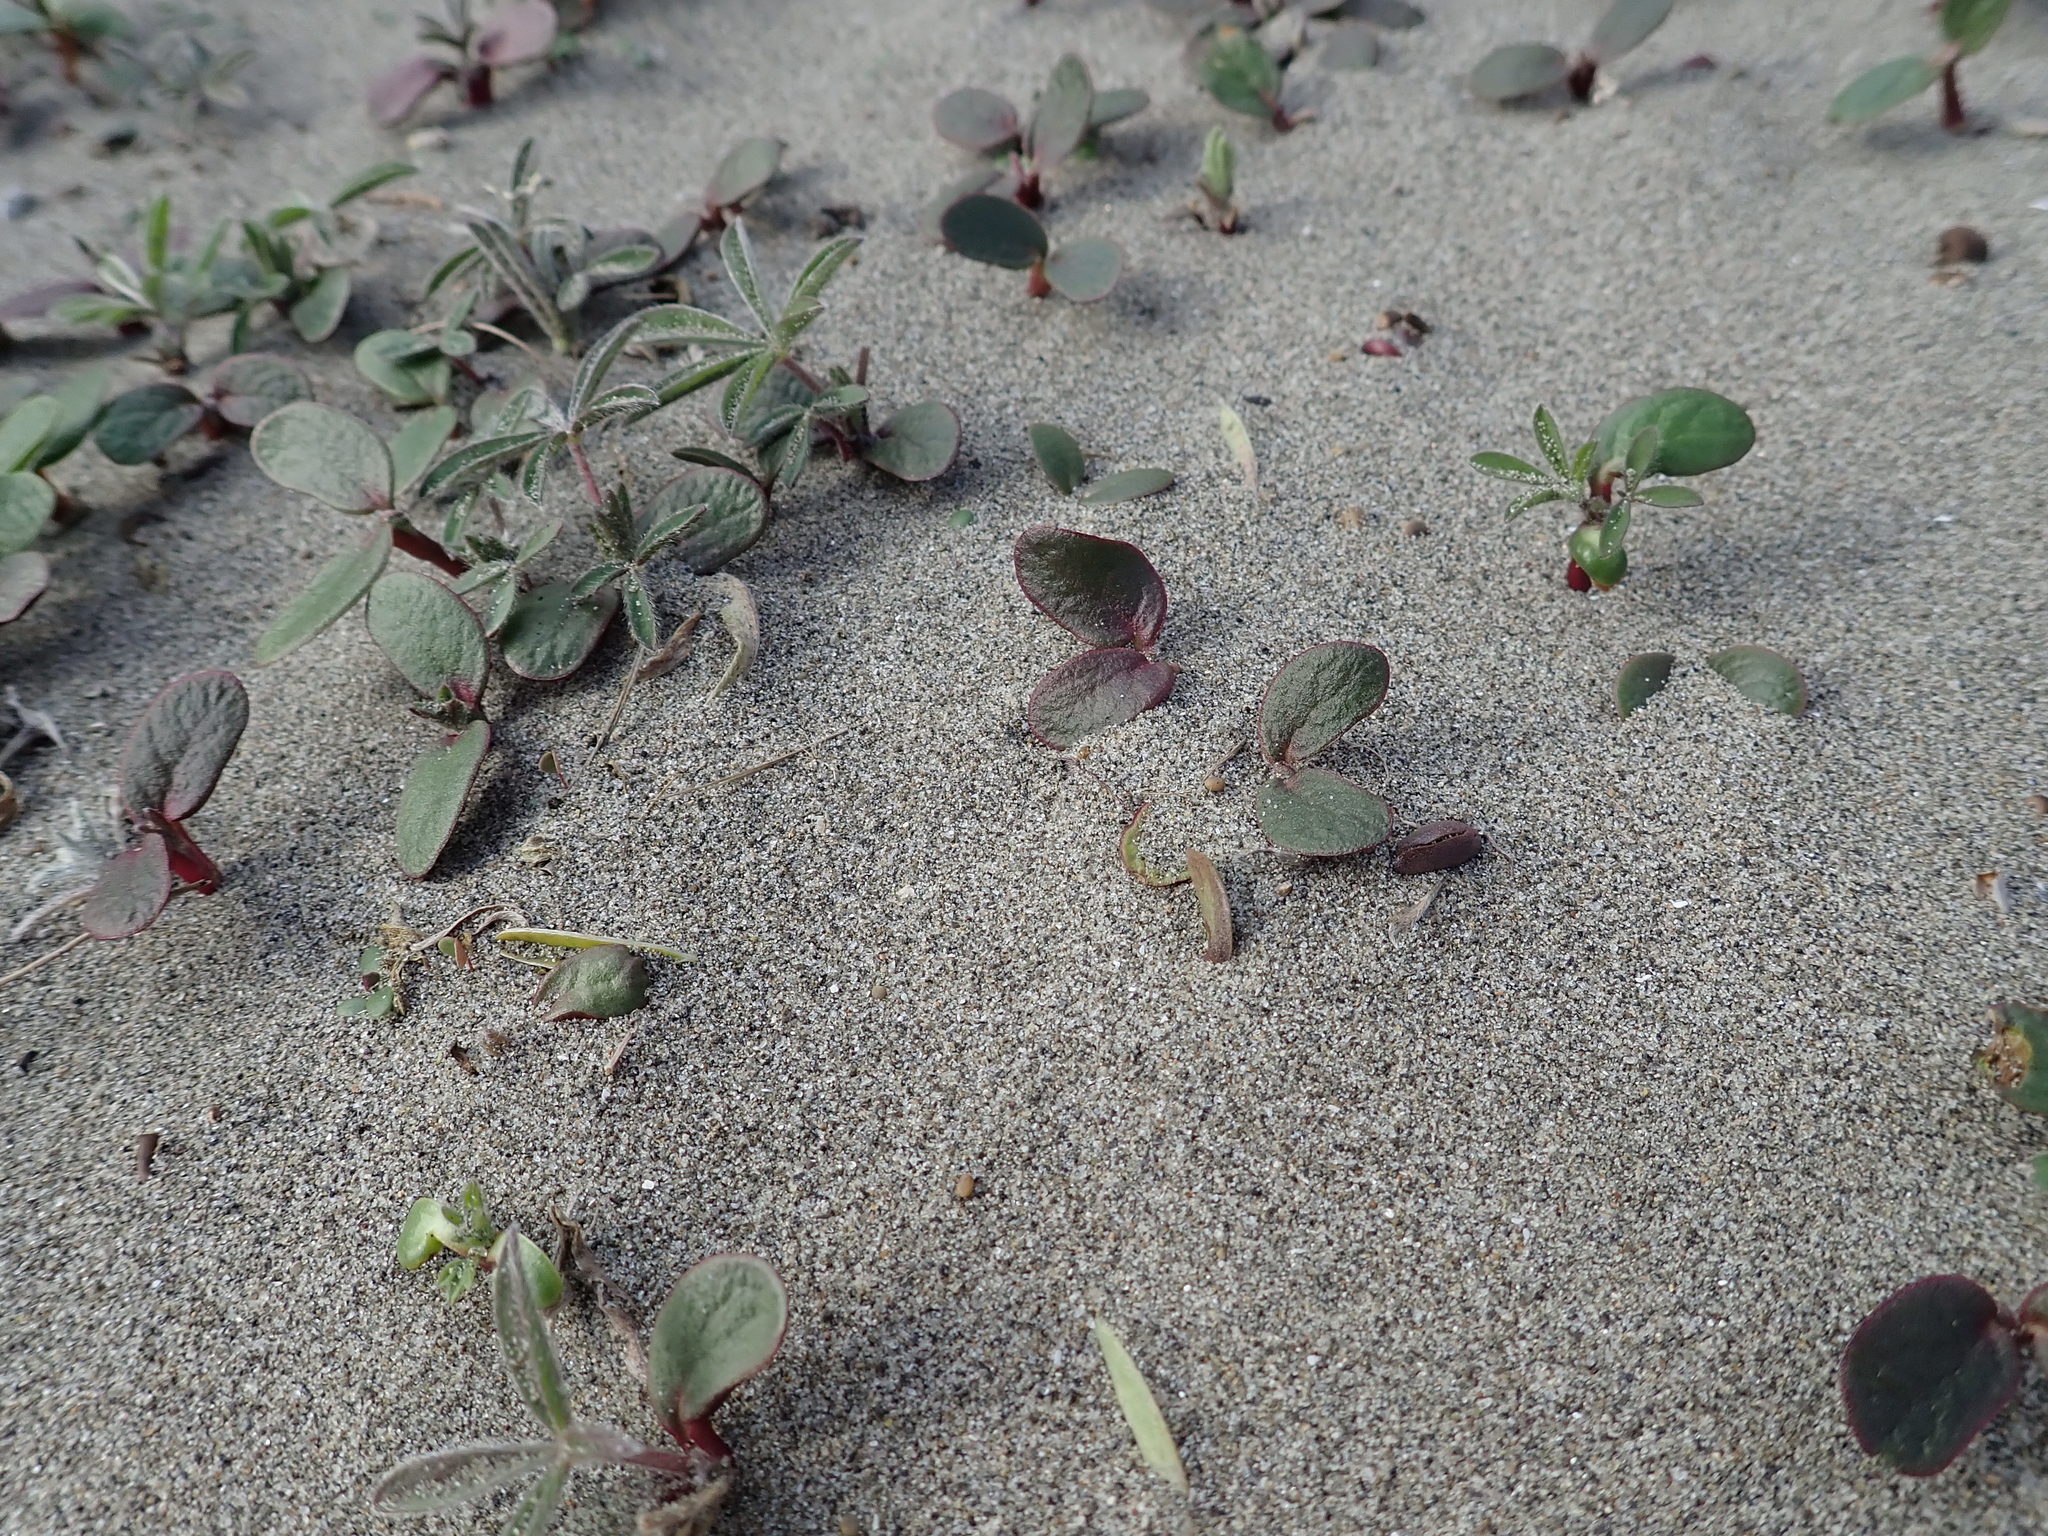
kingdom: Plantae
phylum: Tracheophyta
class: Magnoliopsida
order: Fabales
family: Fabaceae
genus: Lupinus
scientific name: Lupinus arboreus
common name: Yellow bush lupine
